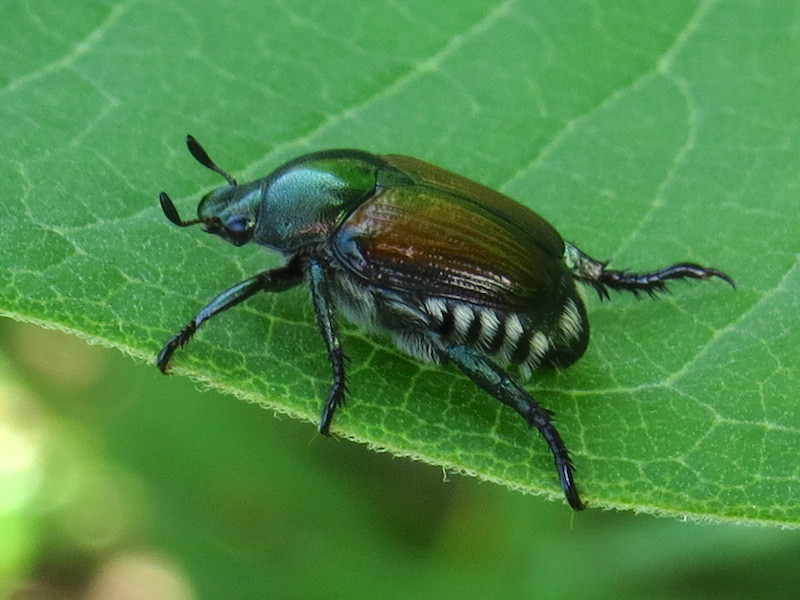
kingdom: Animalia
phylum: Arthropoda
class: Insecta
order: Coleoptera
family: Scarabaeidae
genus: Popillia
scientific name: Popillia japonica
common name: Japanese beetle
